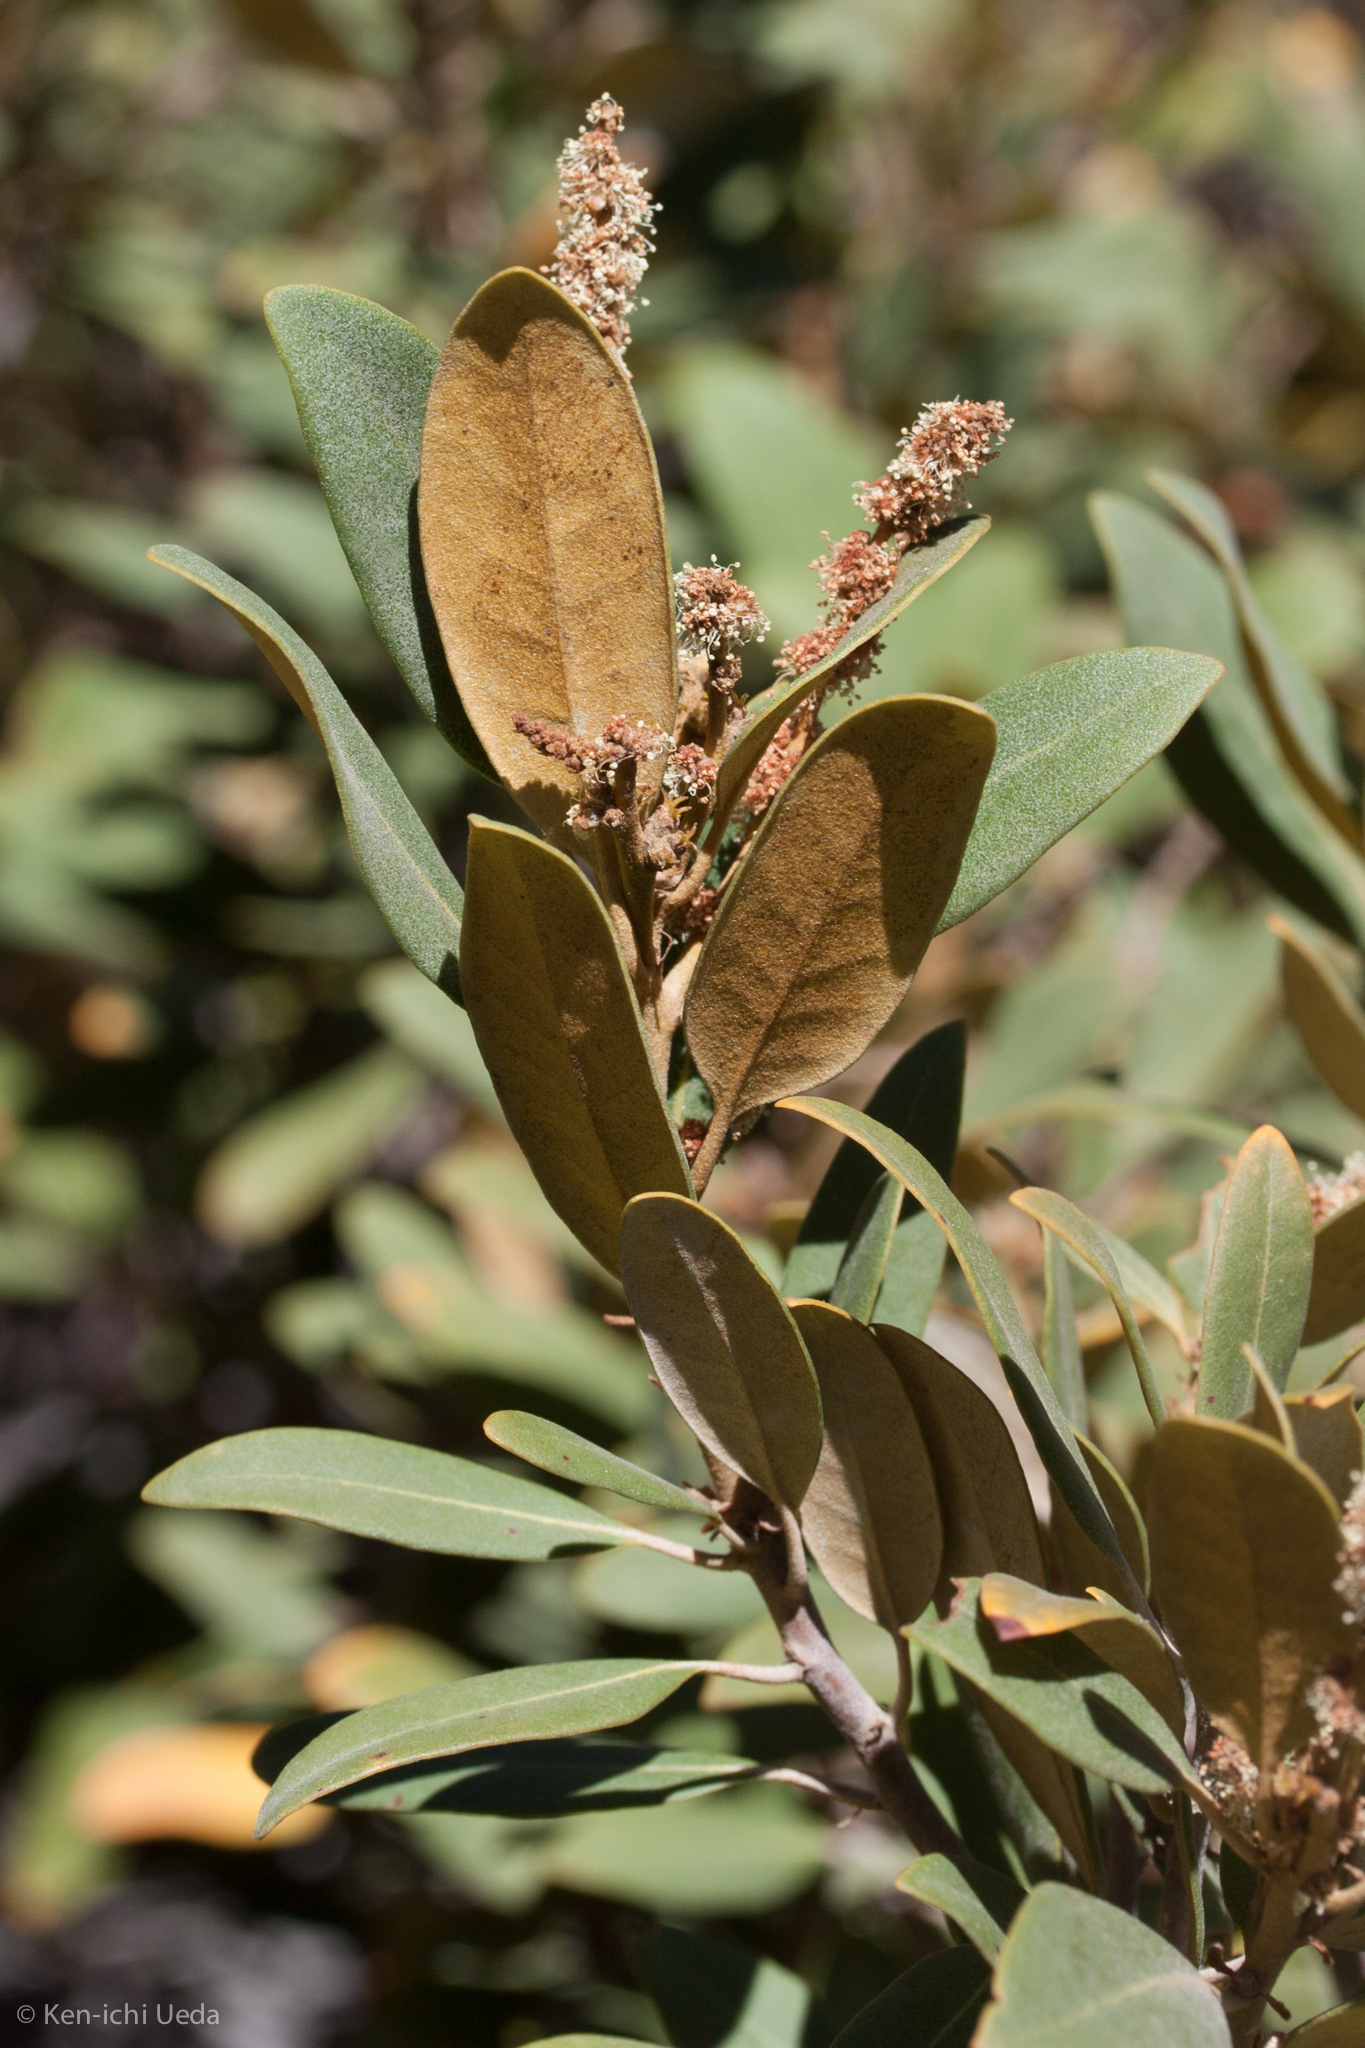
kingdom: Plantae
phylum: Tracheophyta
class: Magnoliopsida
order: Fagales
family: Fagaceae
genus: Chrysolepis
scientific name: Chrysolepis sempervirens
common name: Bush chinquapin
